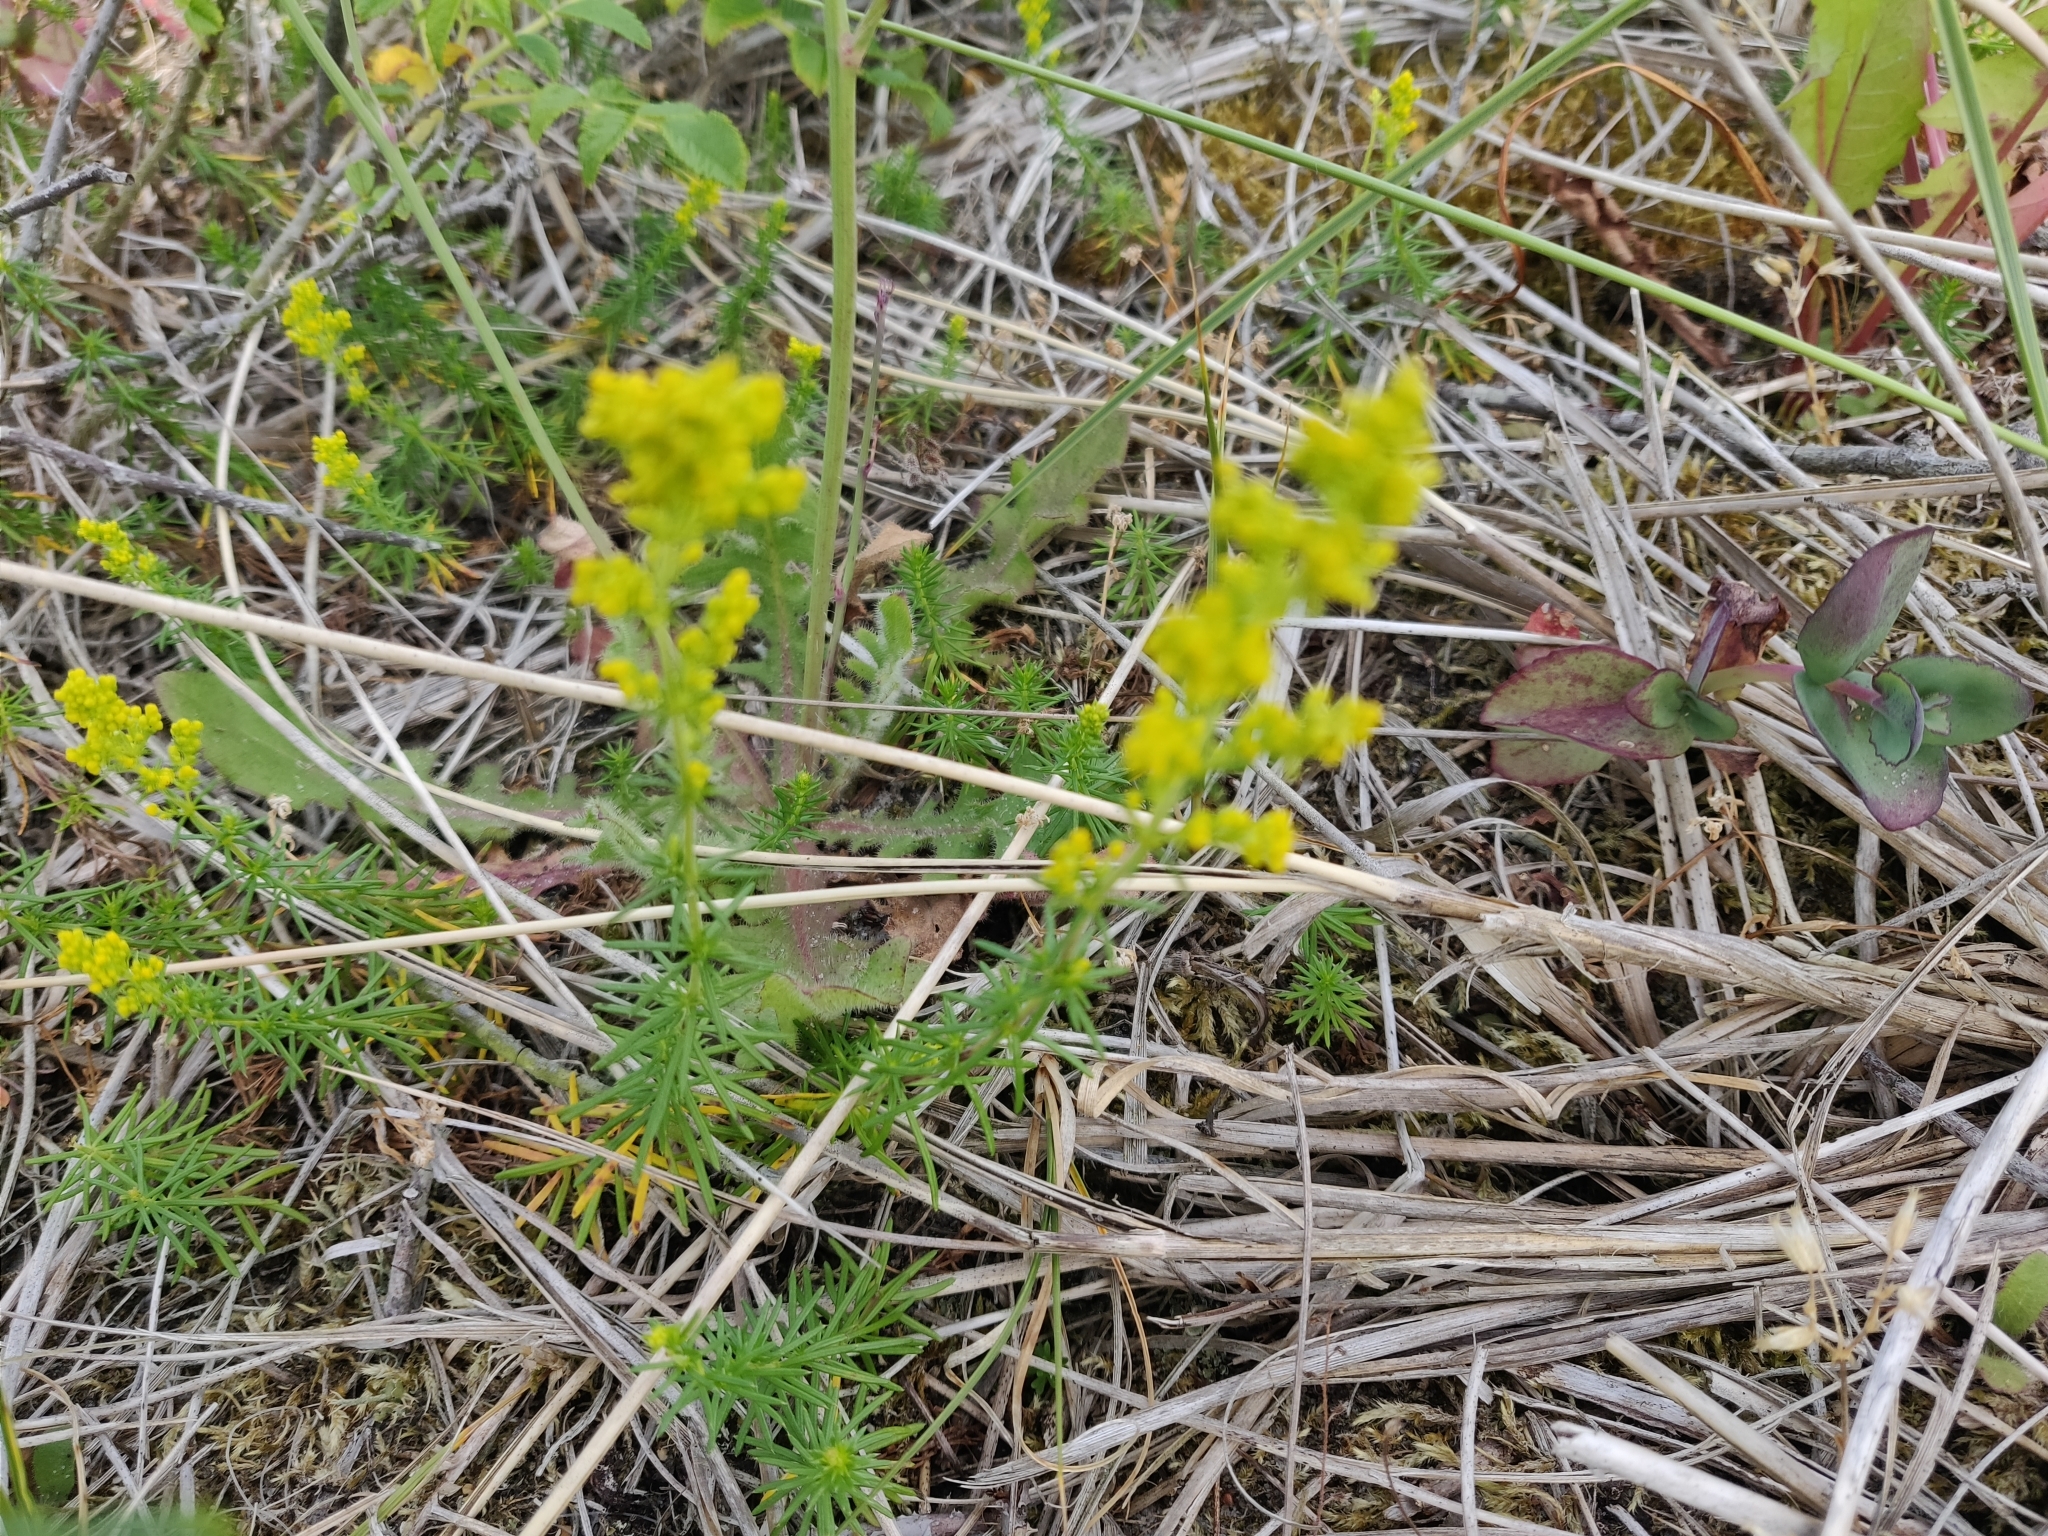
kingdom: Plantae
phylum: Tracheophyta
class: Magnoliopsida
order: Gentianales
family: Rubiaceae
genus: Galium
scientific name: Galium verum
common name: Lady's bedstraw
